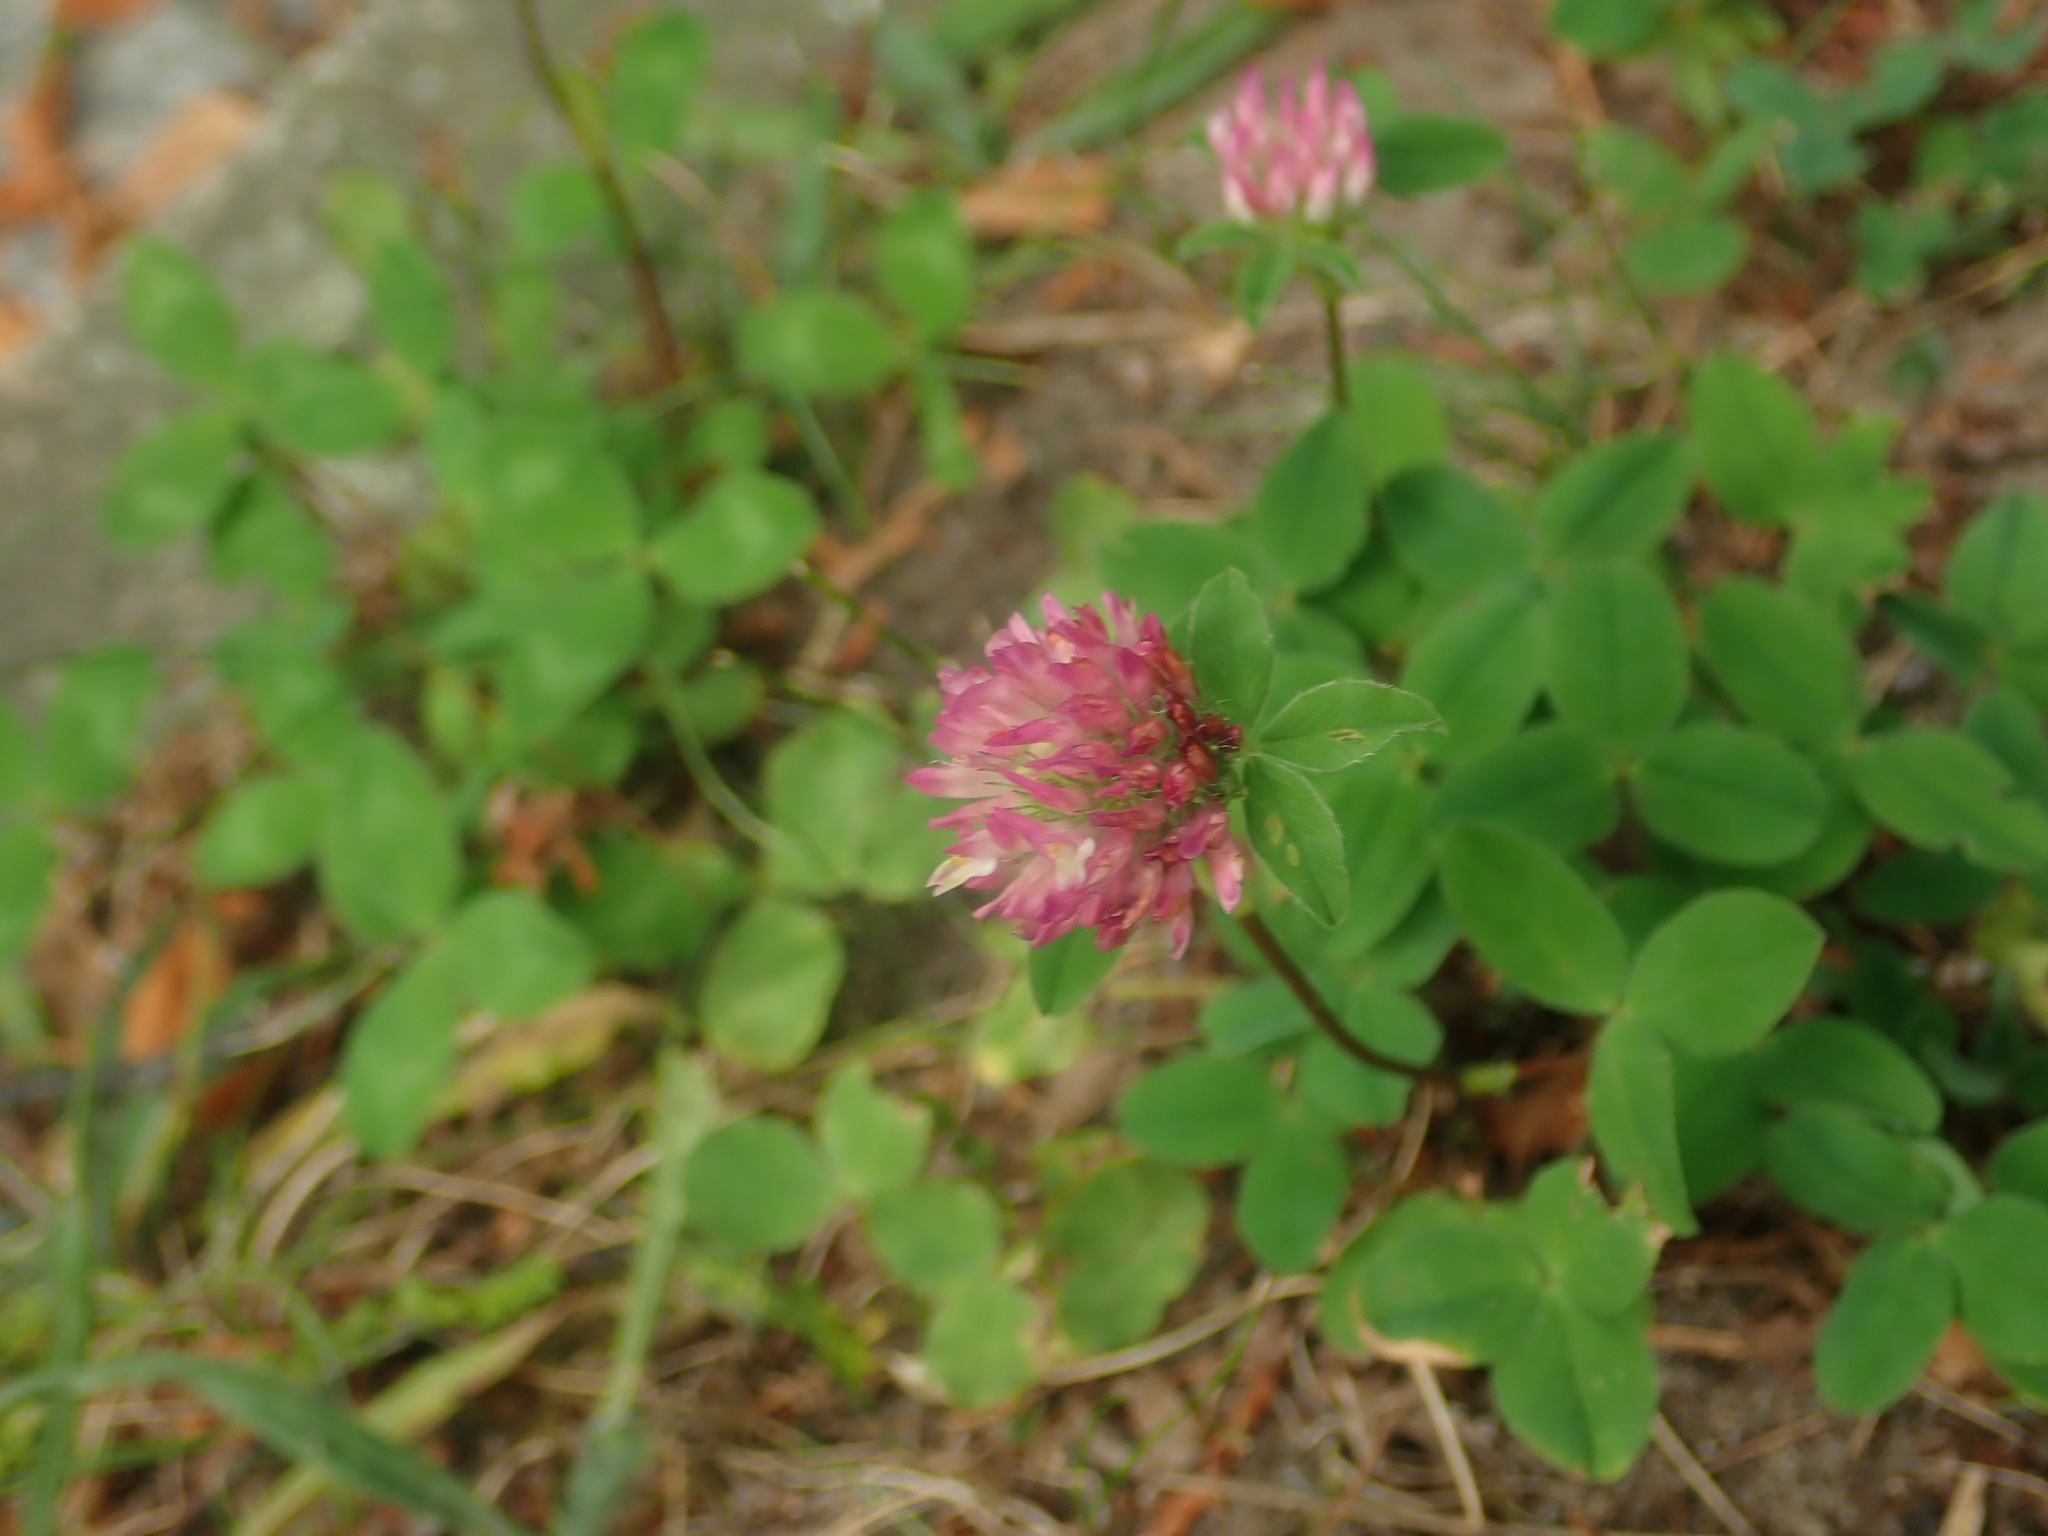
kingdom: Plantae
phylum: Tracheophyta
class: Magnoliopsida
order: Fabales
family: Fabaceae
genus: Trifolium
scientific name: Trifolium pratense
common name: Red clover
